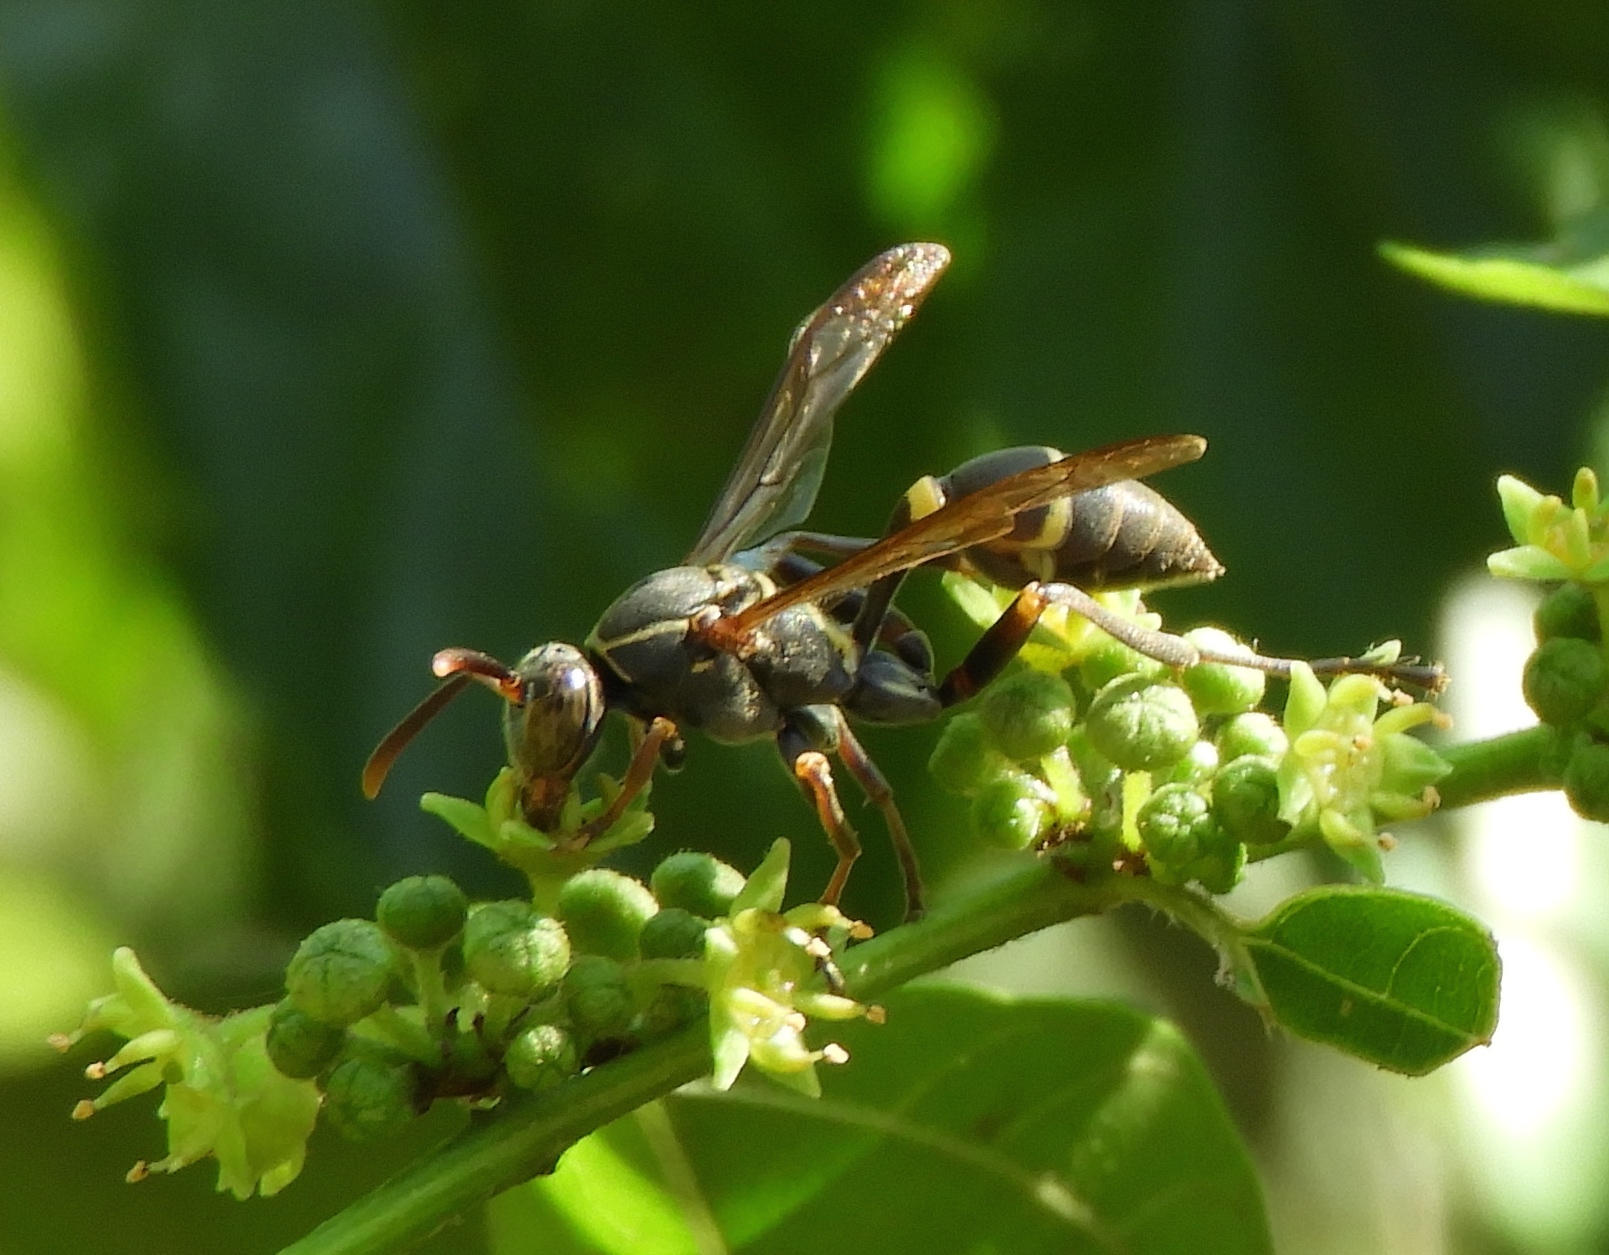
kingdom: Animalia
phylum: Arthropoda
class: Insecta
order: Hymenoptera
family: Vespidae
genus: Mischocyttarus
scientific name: Mischocyttarus
